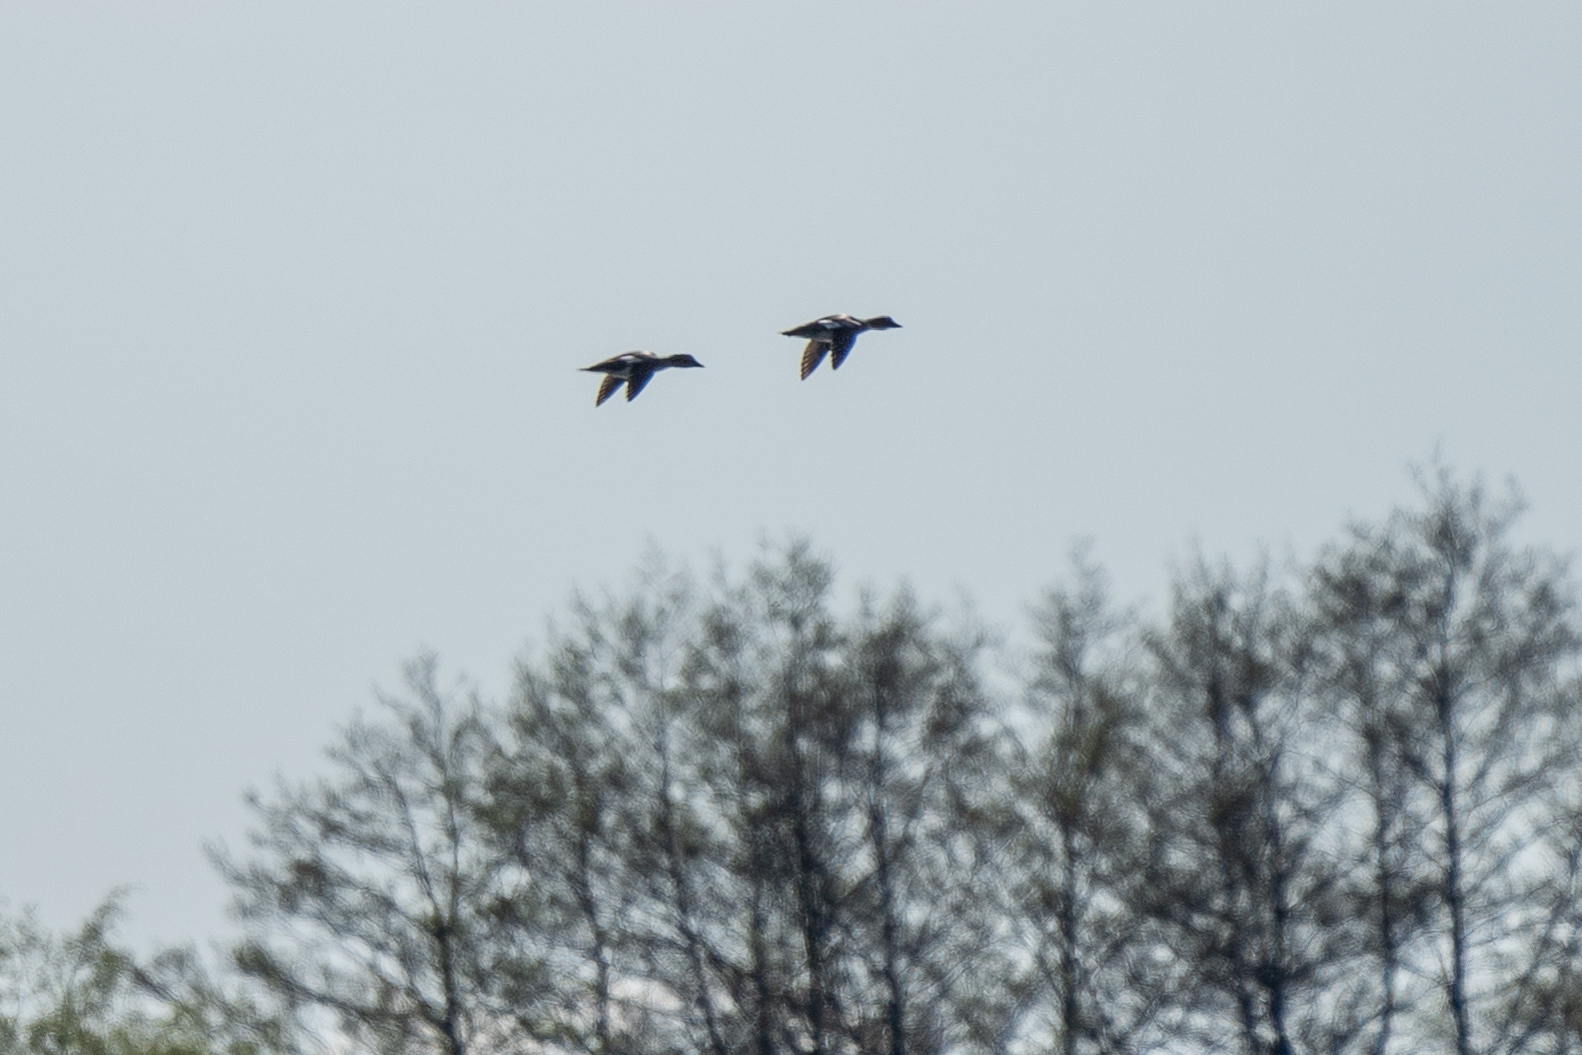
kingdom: Animalia
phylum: Chordata
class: Aves
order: Anseriformes
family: Anatidae
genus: Bucephala
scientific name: Bucephala clangula
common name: Common goldeneye
